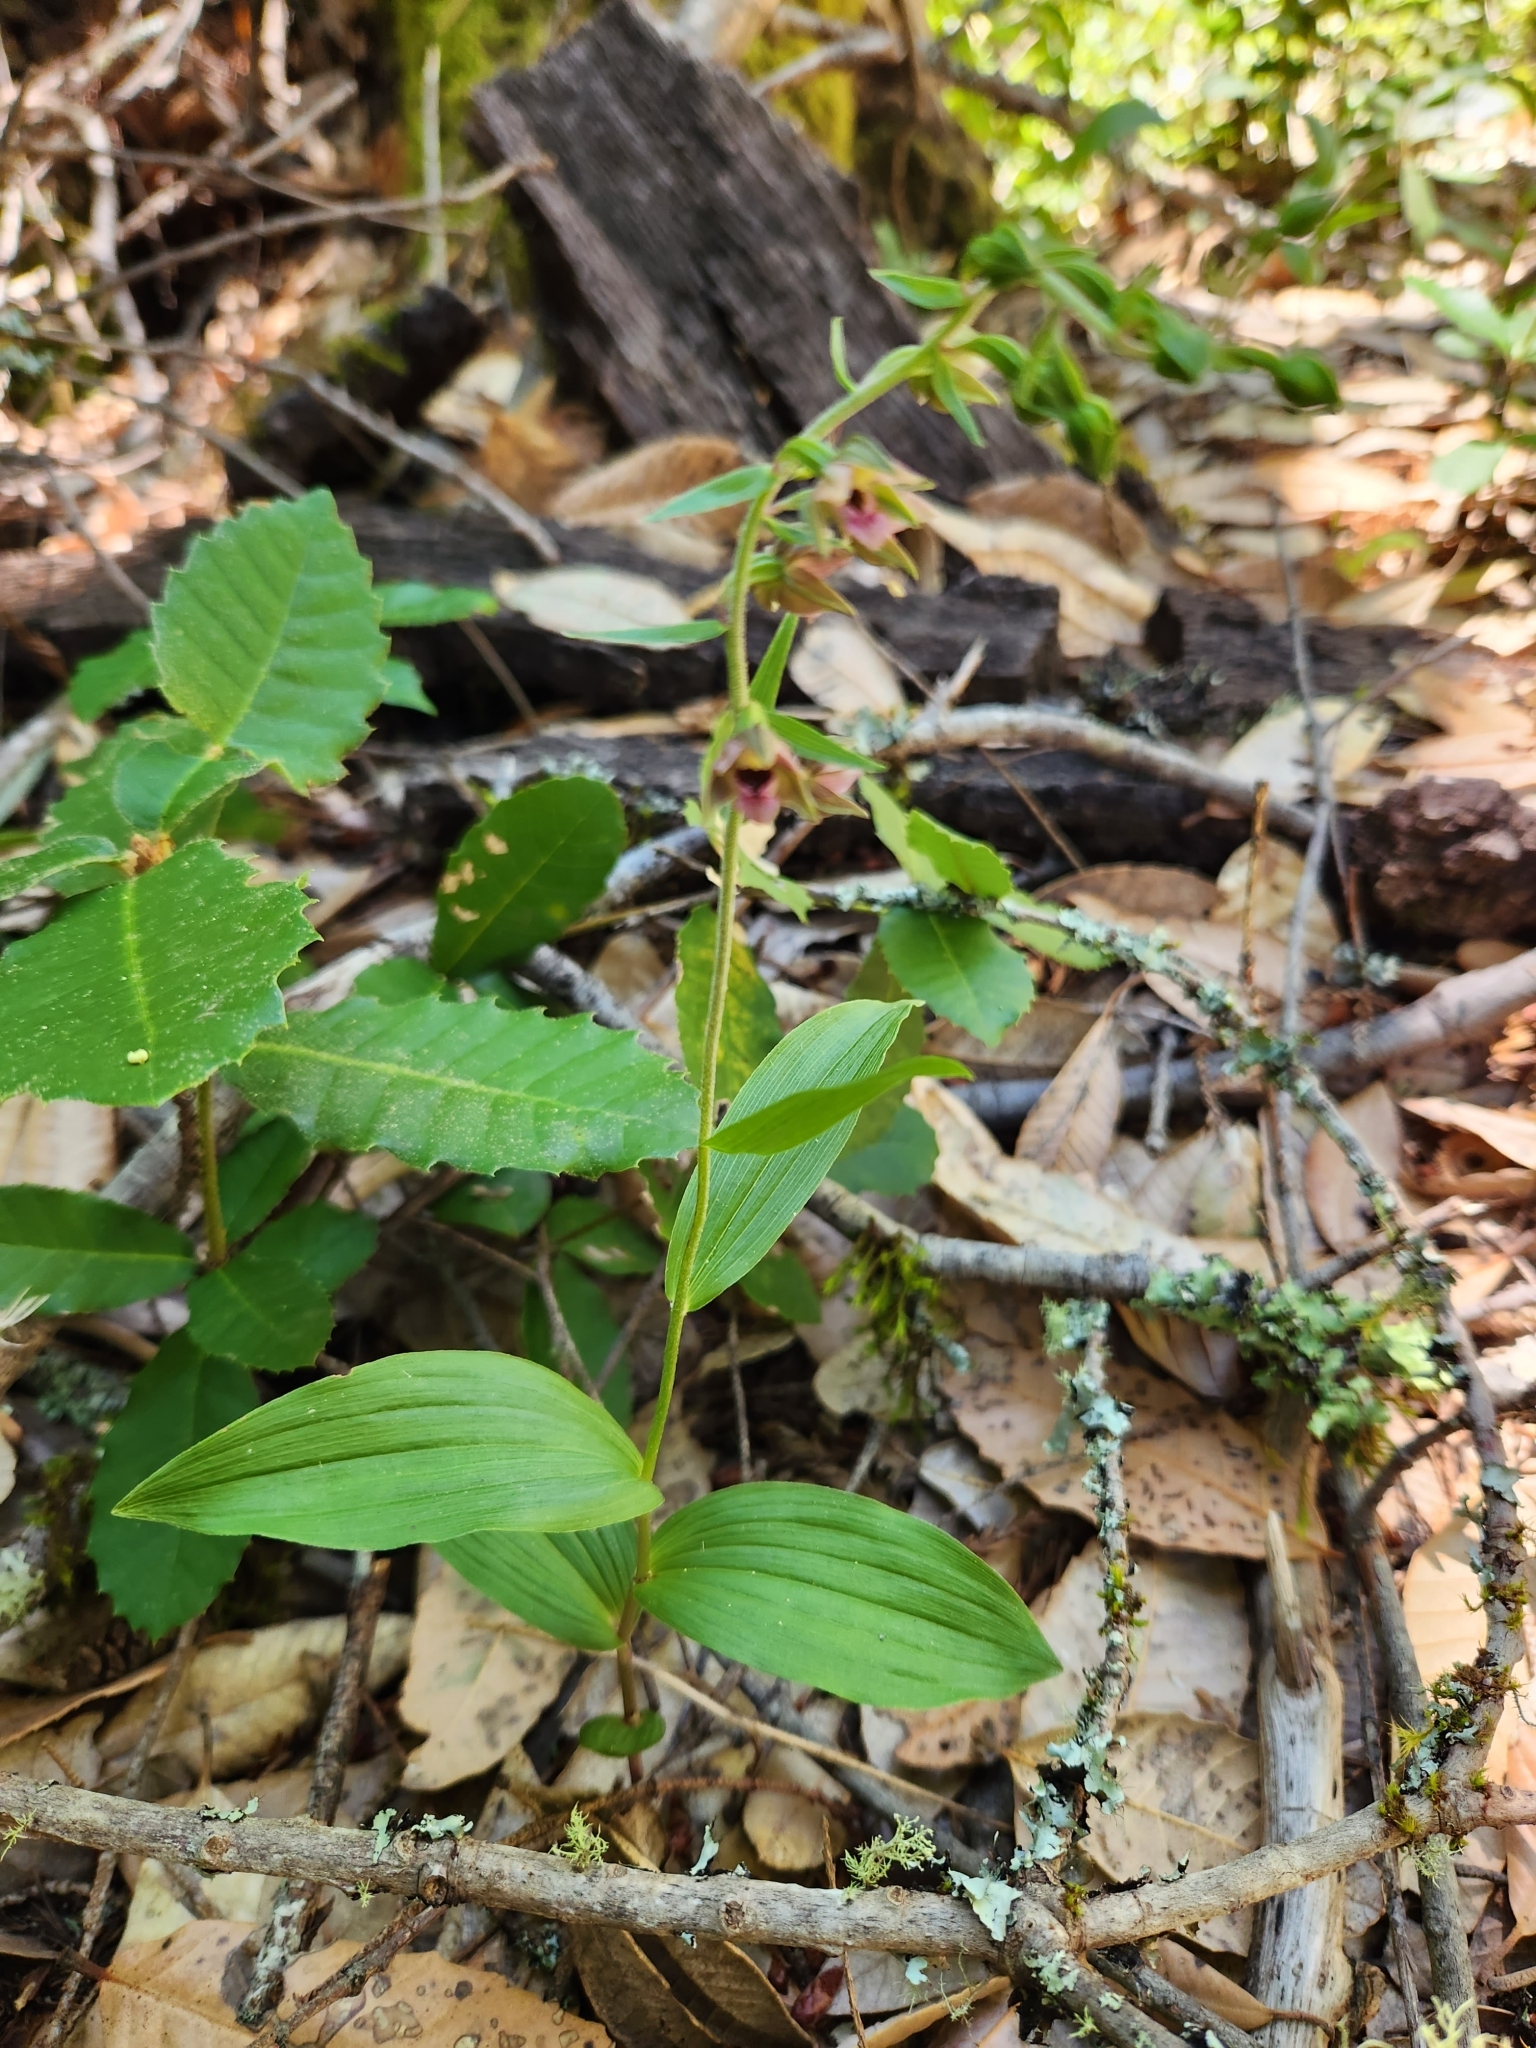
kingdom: Plantae
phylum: Tracheophyta
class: Liliopsida
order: Asparagales
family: Orchidaceae
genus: Epipactis
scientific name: Epipactis helleborine
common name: Broad-leaved helleborine
